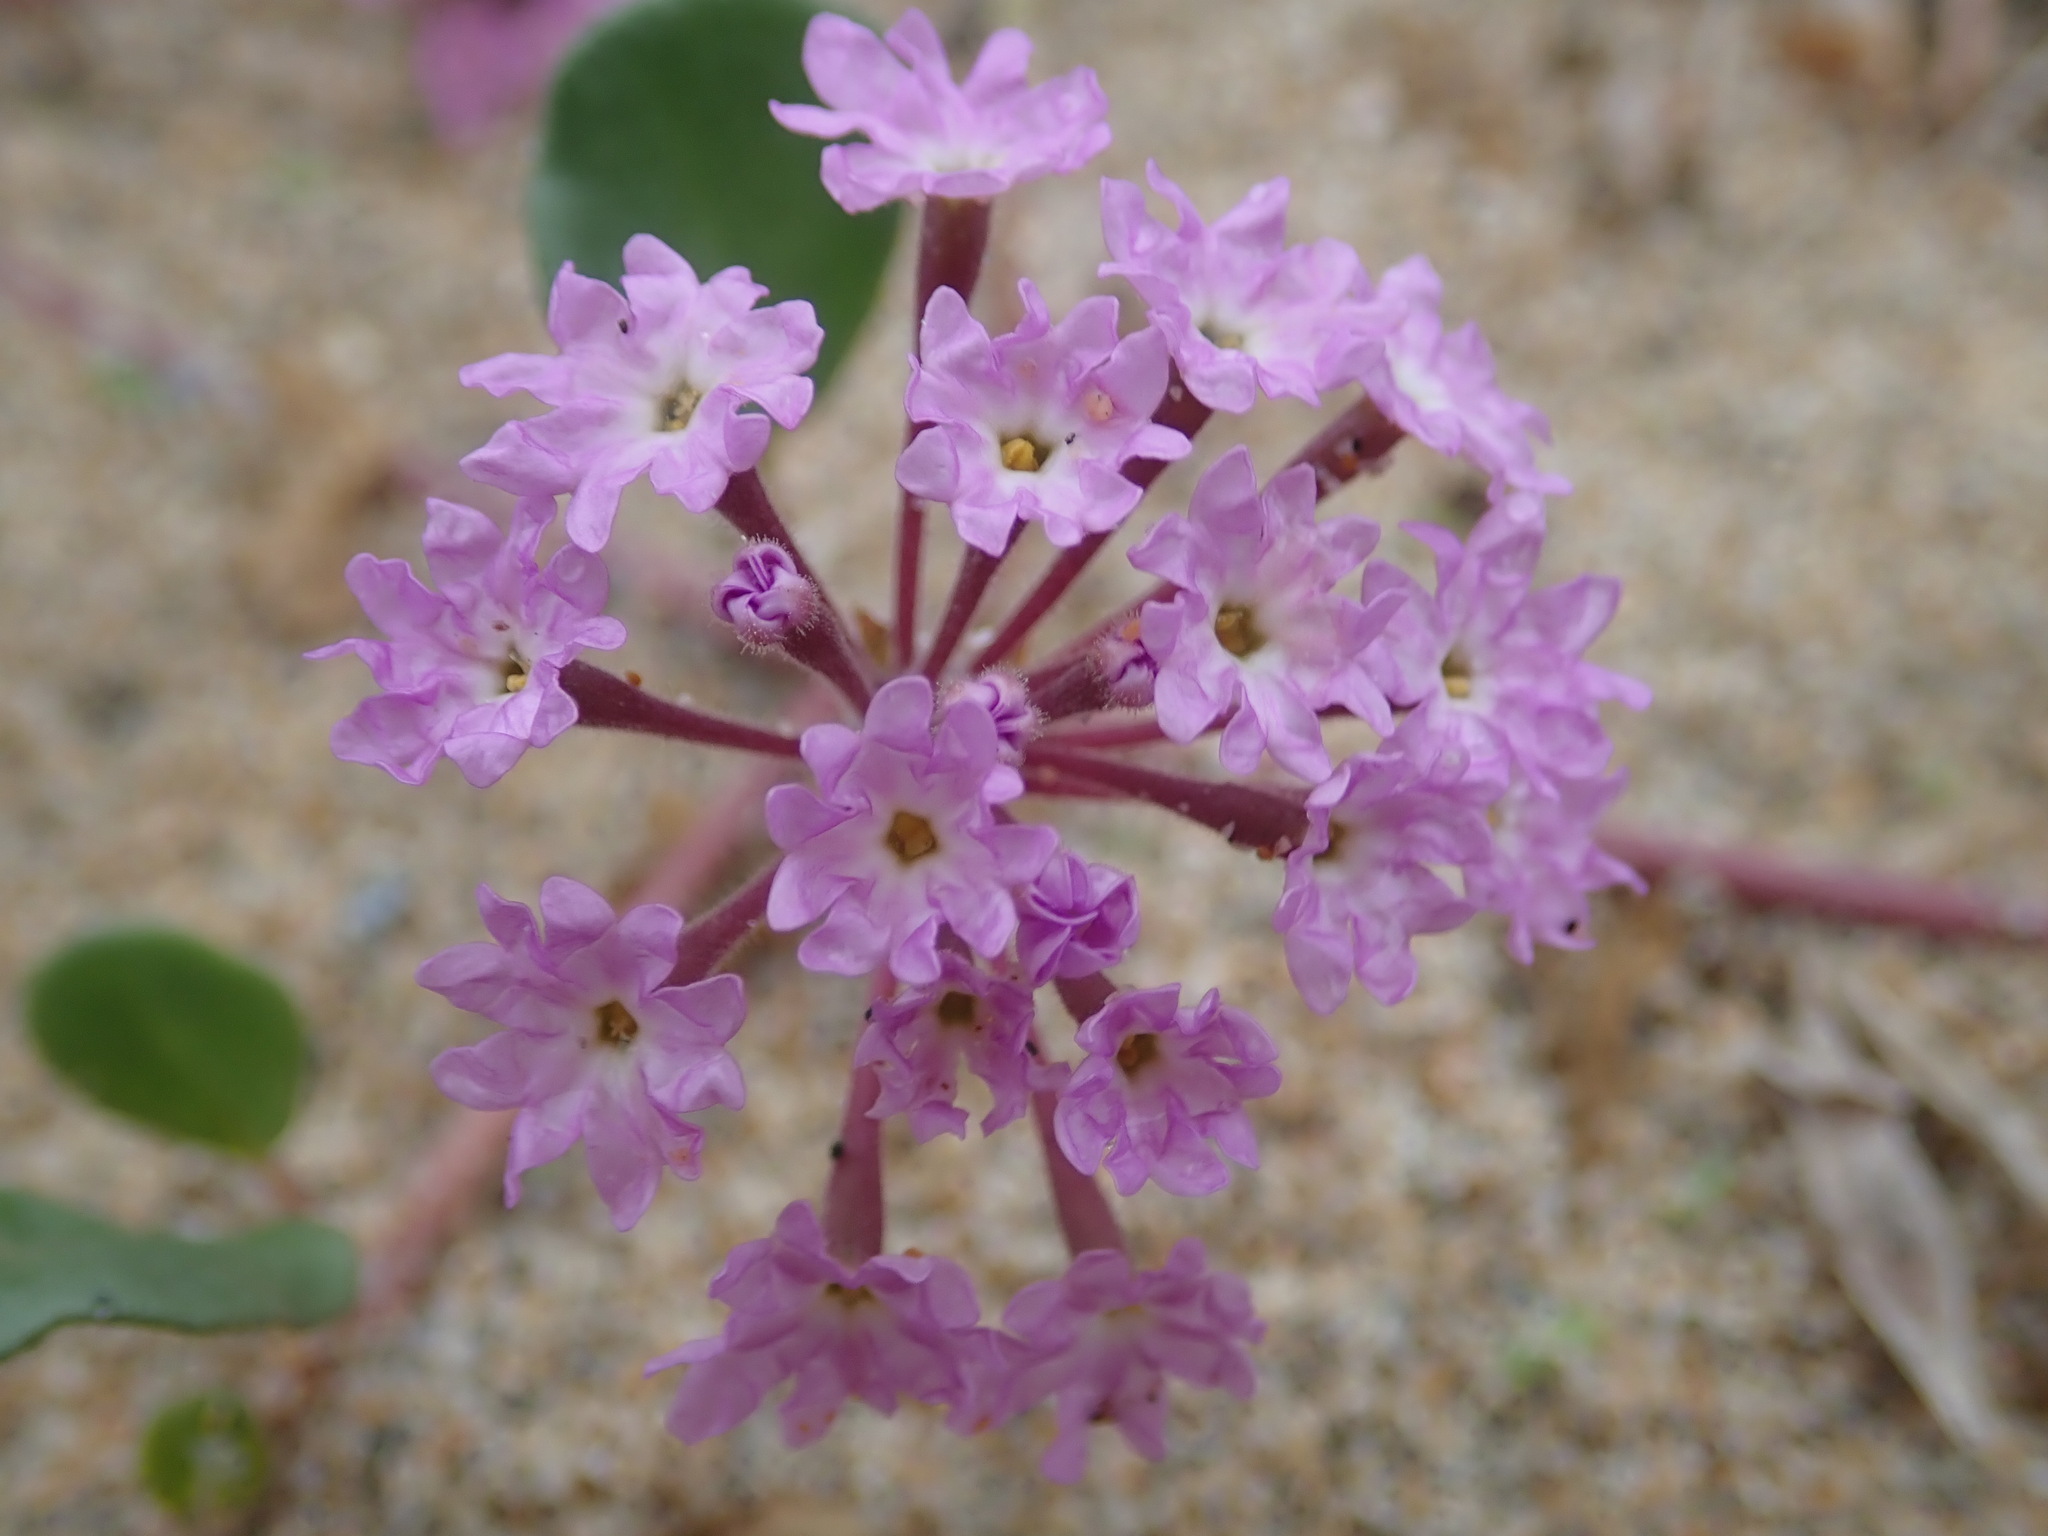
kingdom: Plantae
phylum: Tracheophyta
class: Magnoliopsida
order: Caryophyllales
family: Nyctaginaceae
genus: Abronia
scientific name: Abronia umbellata
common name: Sand-verbena
